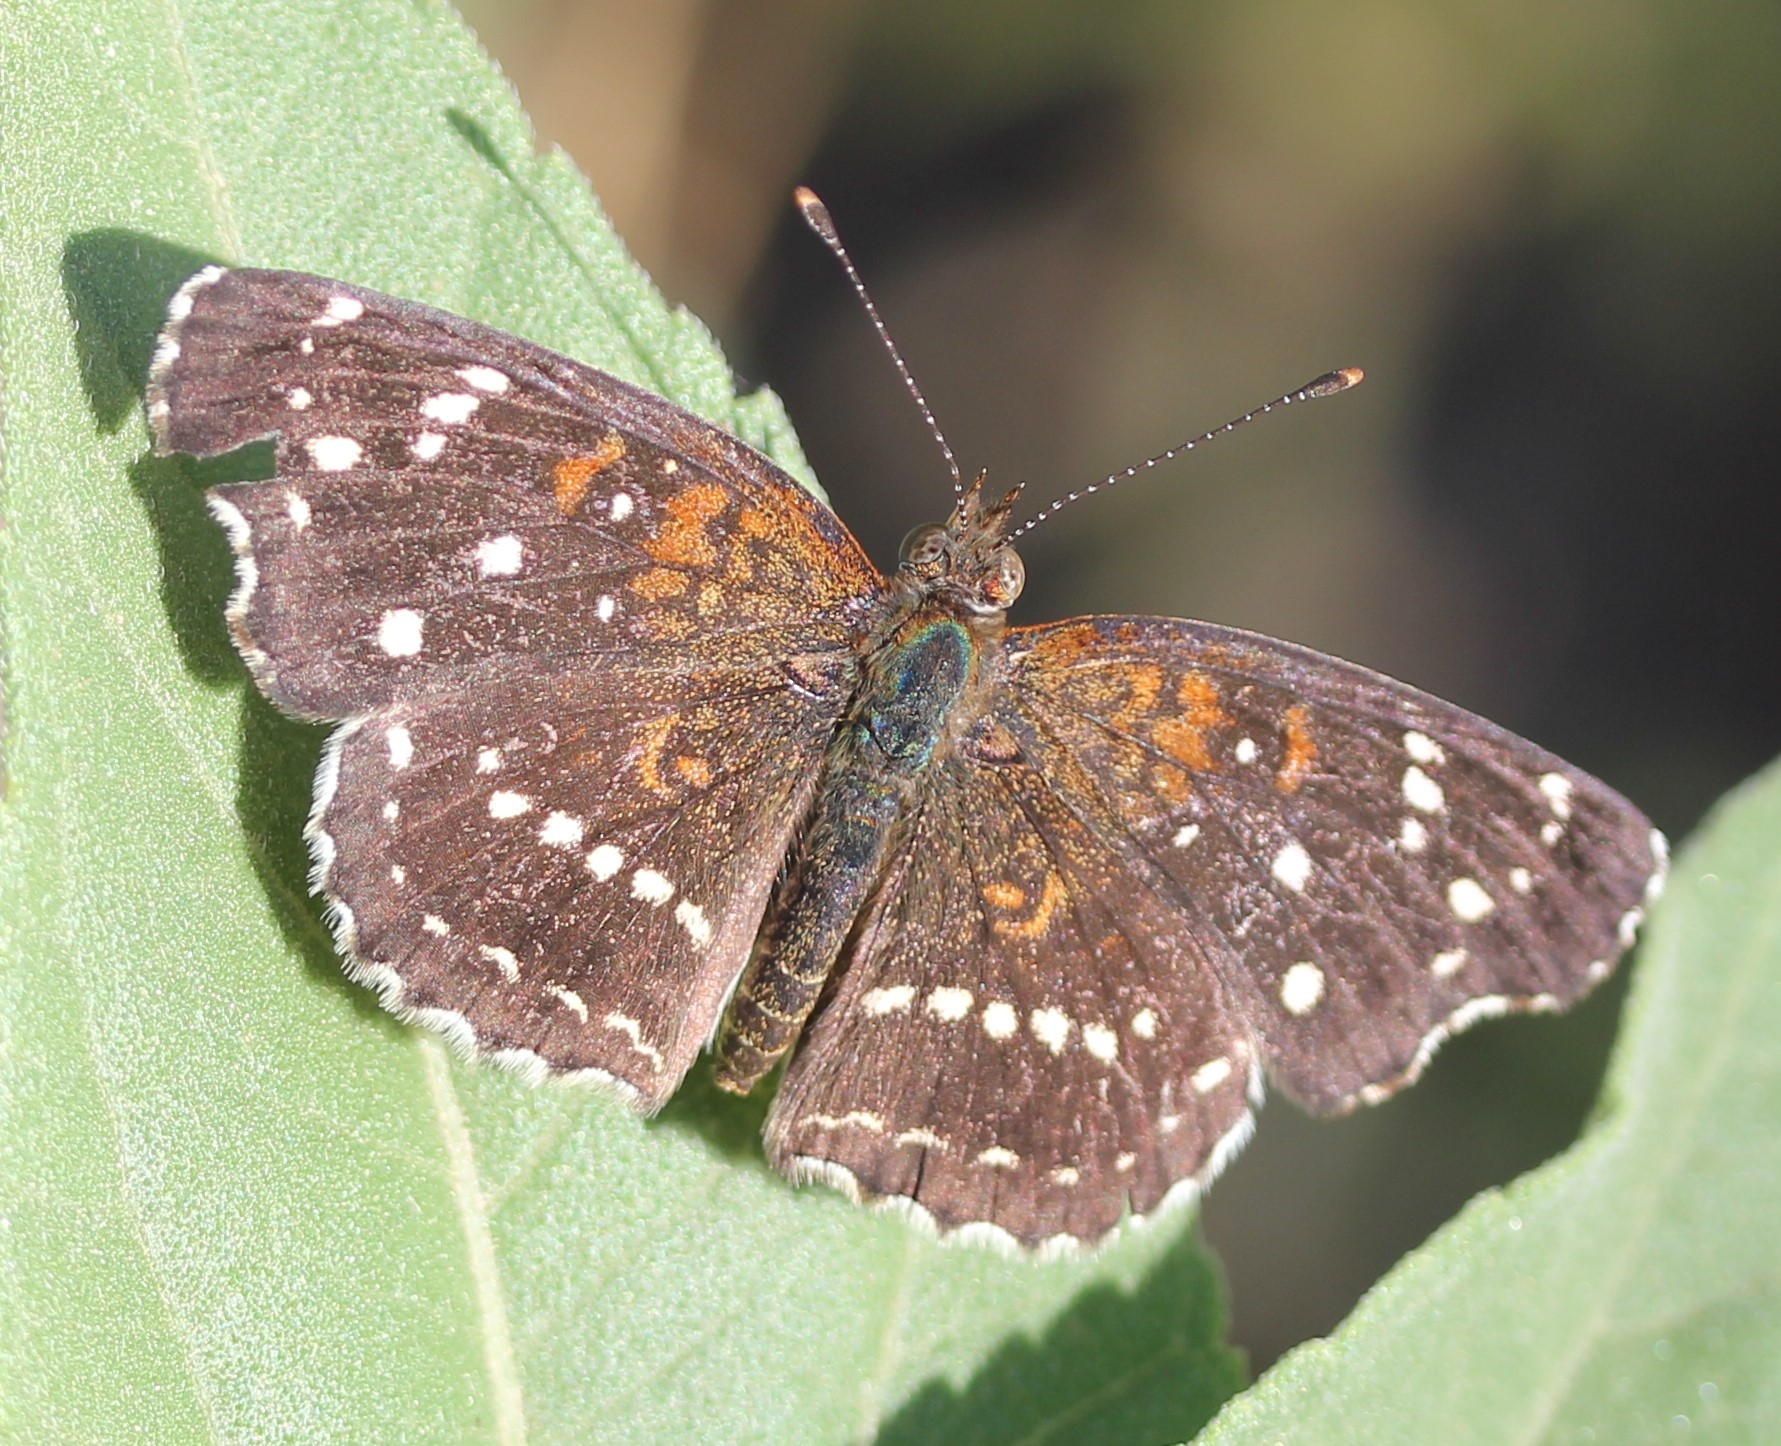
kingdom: Animalia
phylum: Arthropoda
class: Insecta
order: Lepidoptera
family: Nymphalidae
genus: Anthanassa
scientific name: Anthanassa texana
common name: Texan crescent
